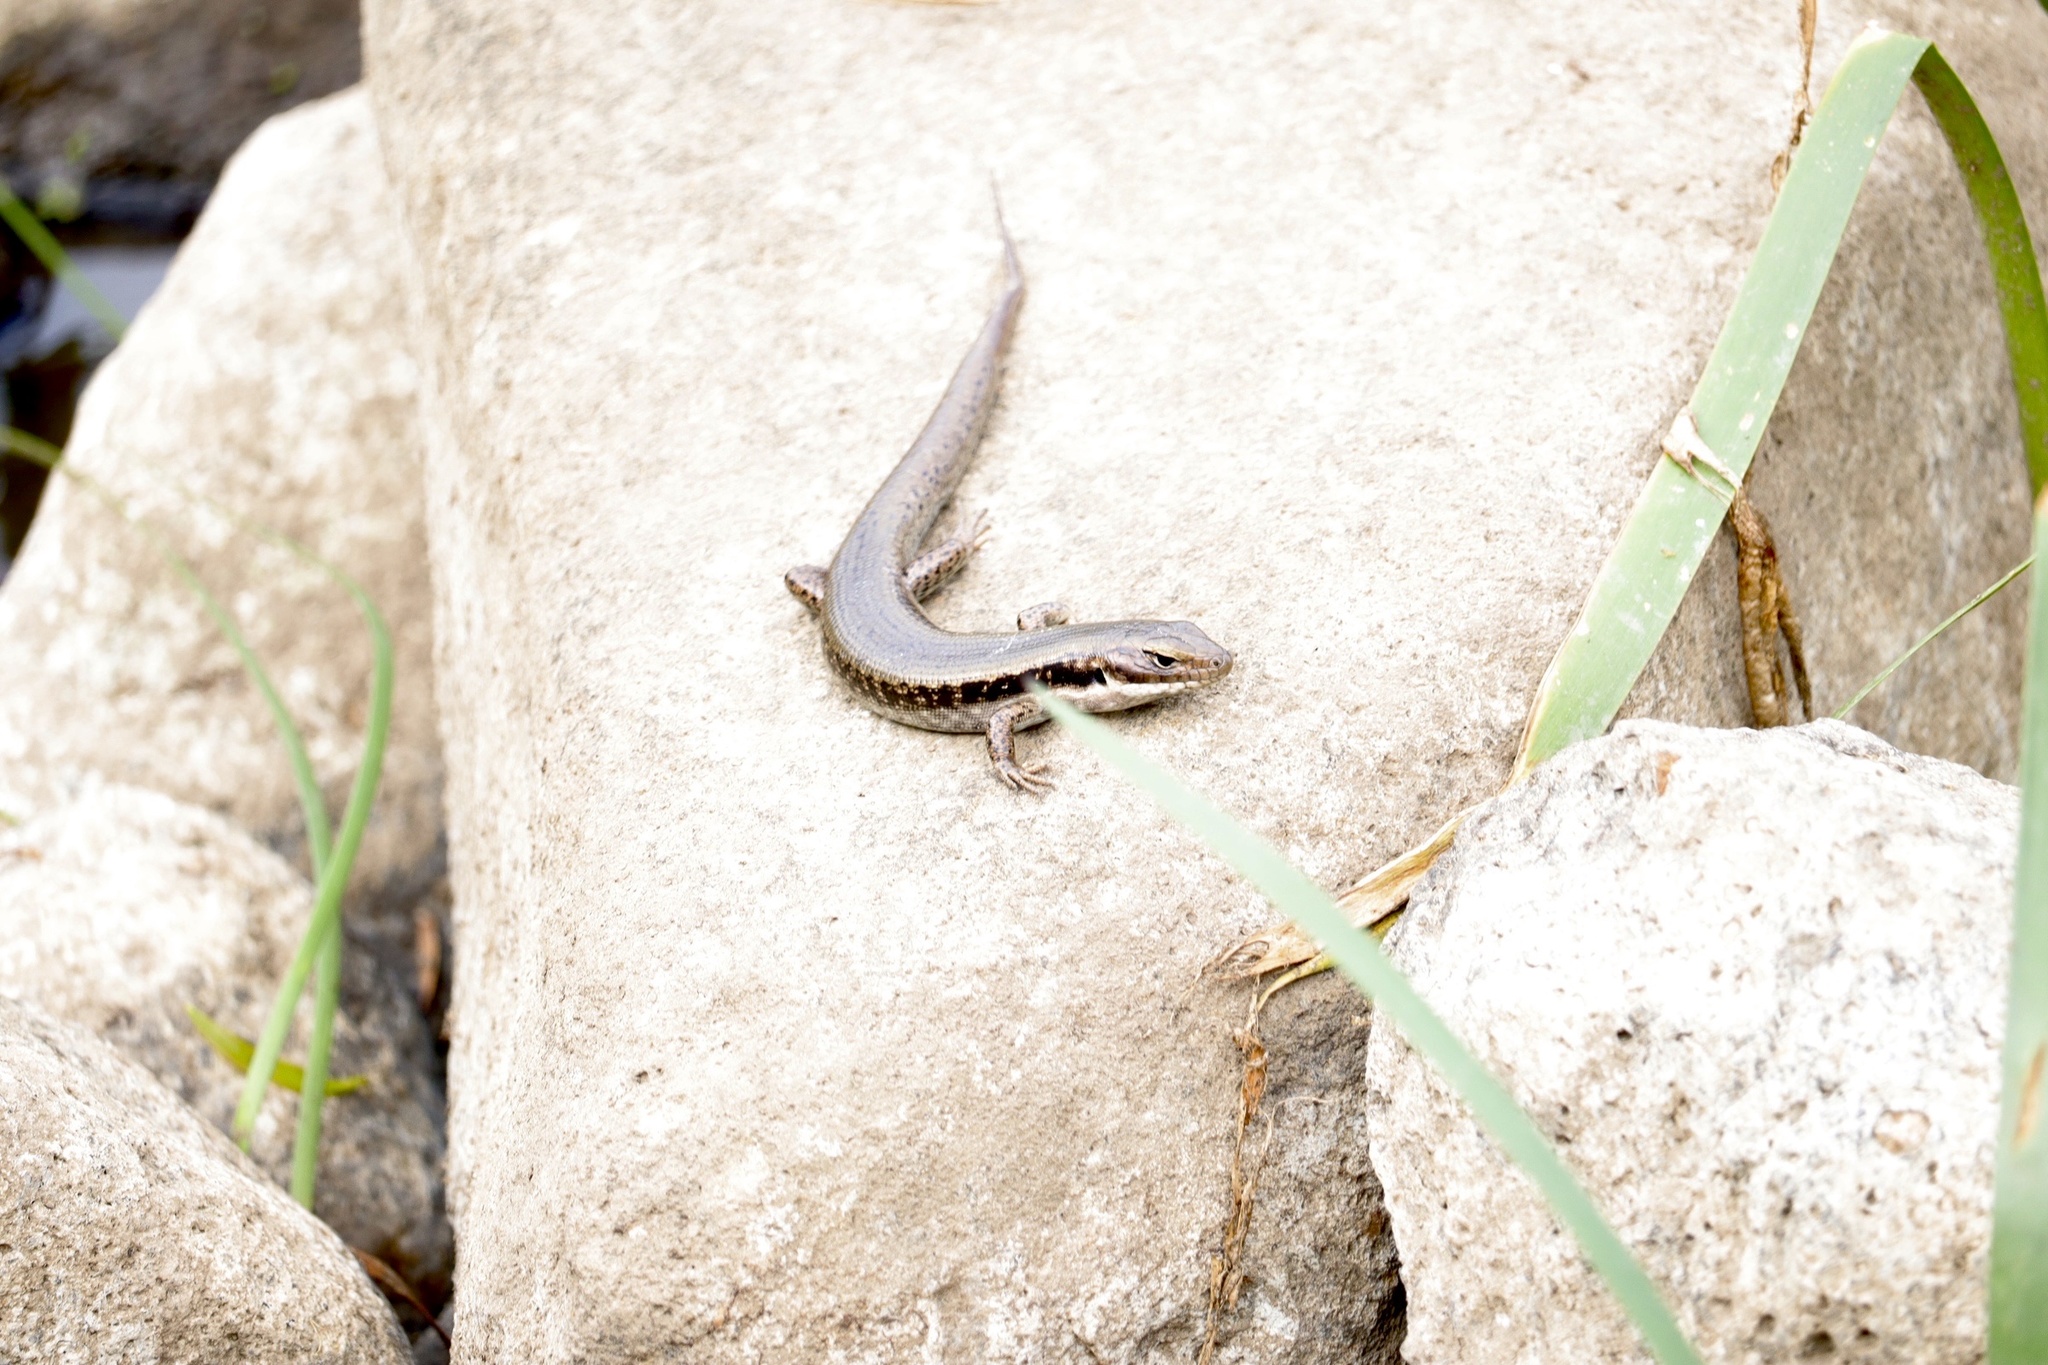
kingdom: Animalia
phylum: Chordata
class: Squamata
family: Scincidae
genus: Eulamprus
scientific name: Eulamprus tympanum
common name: Cool-temperate water-skink
